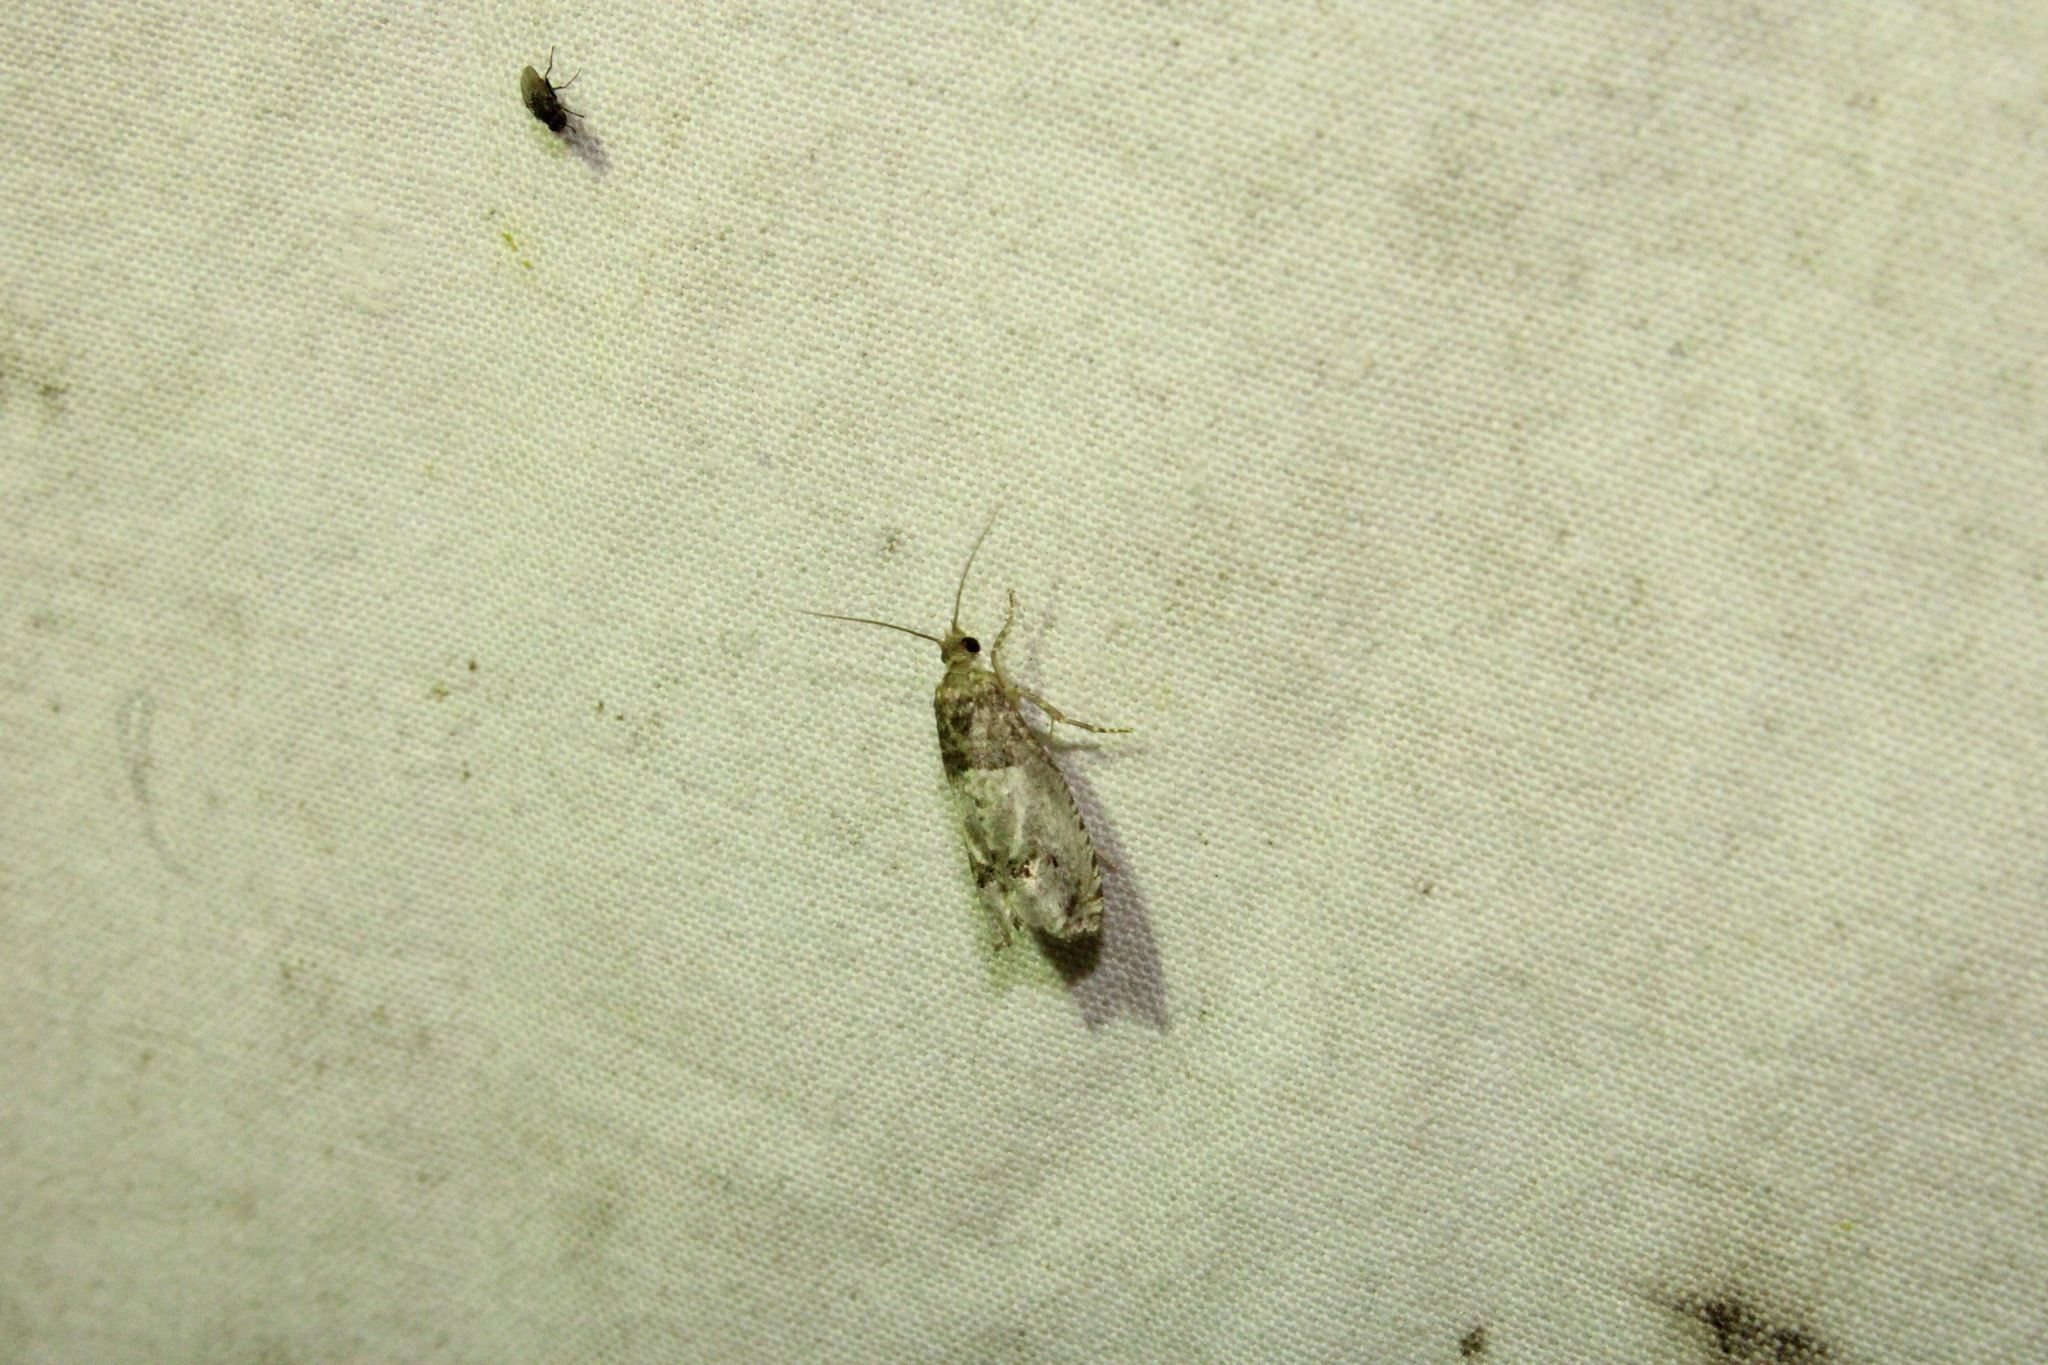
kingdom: Animalia
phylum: Arthropoda
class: Insecta
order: Lepidoptera
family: Tortricidae
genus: Notocelia
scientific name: Notocelia rosaecolana
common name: Common rose bell
